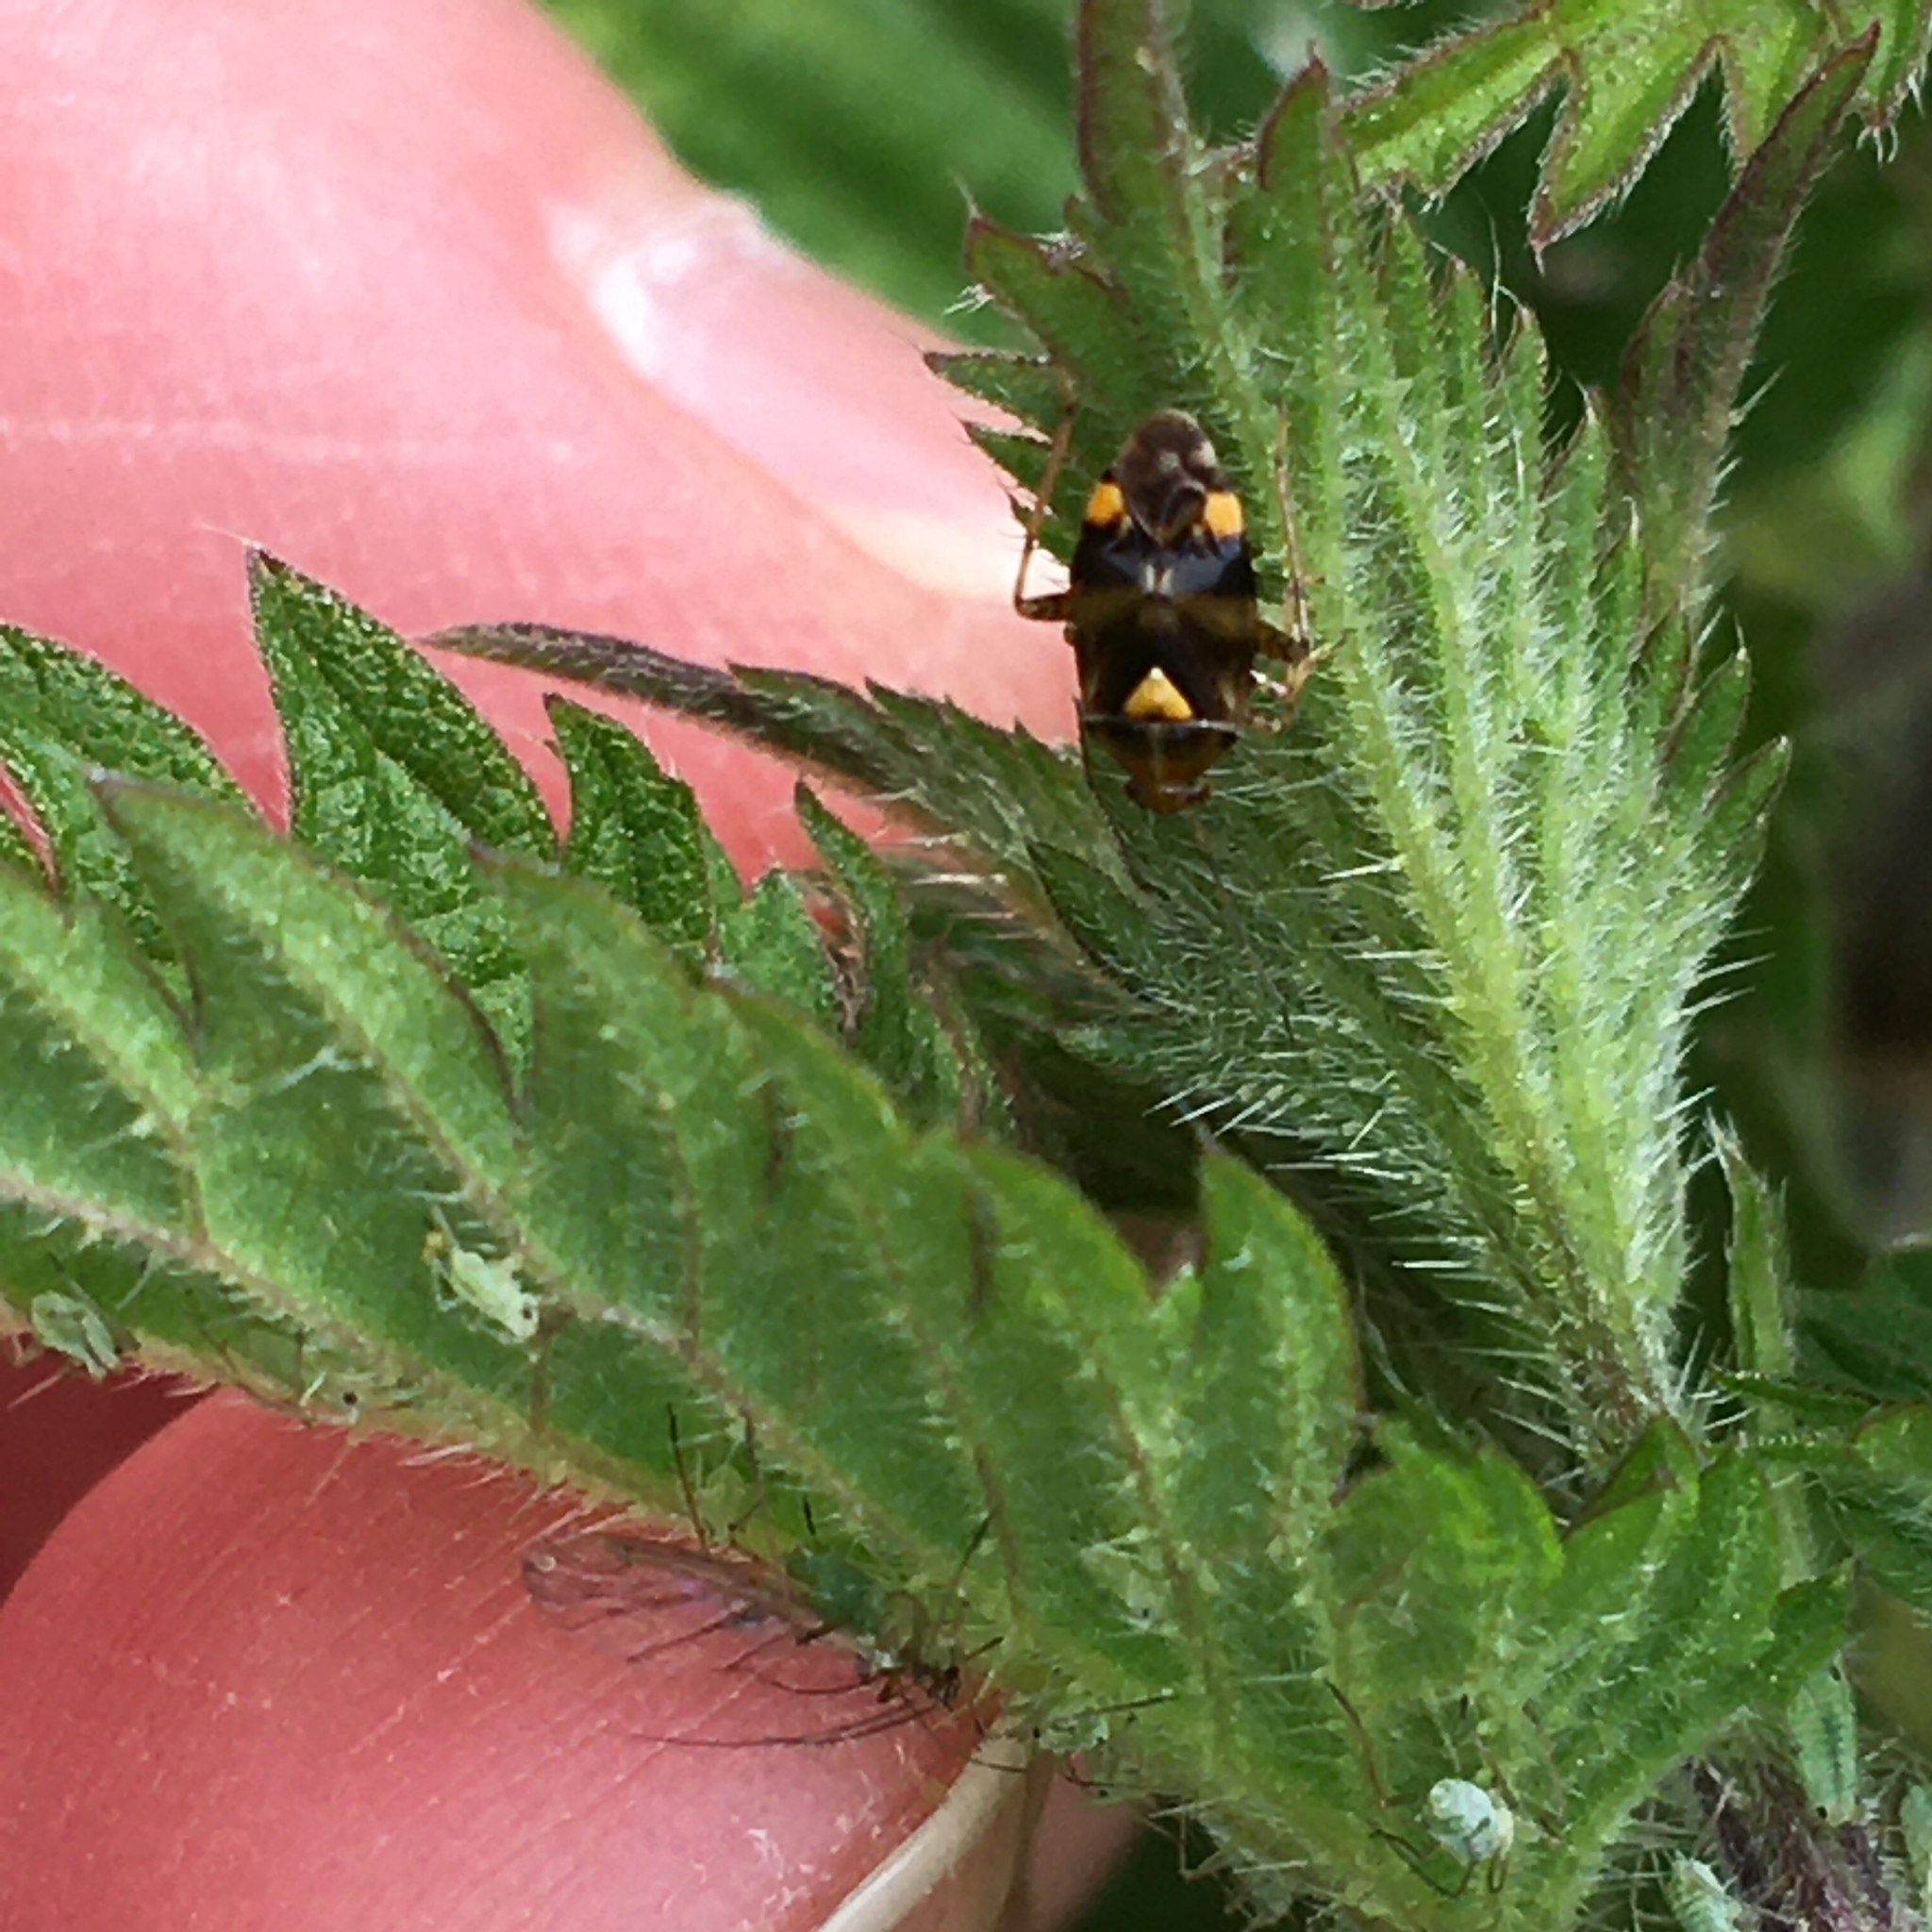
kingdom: Animalia
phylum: Arthropoda
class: Insecta
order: Hemiptera
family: Miridae
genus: Liocoris
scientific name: Liocoris tripustulatus
